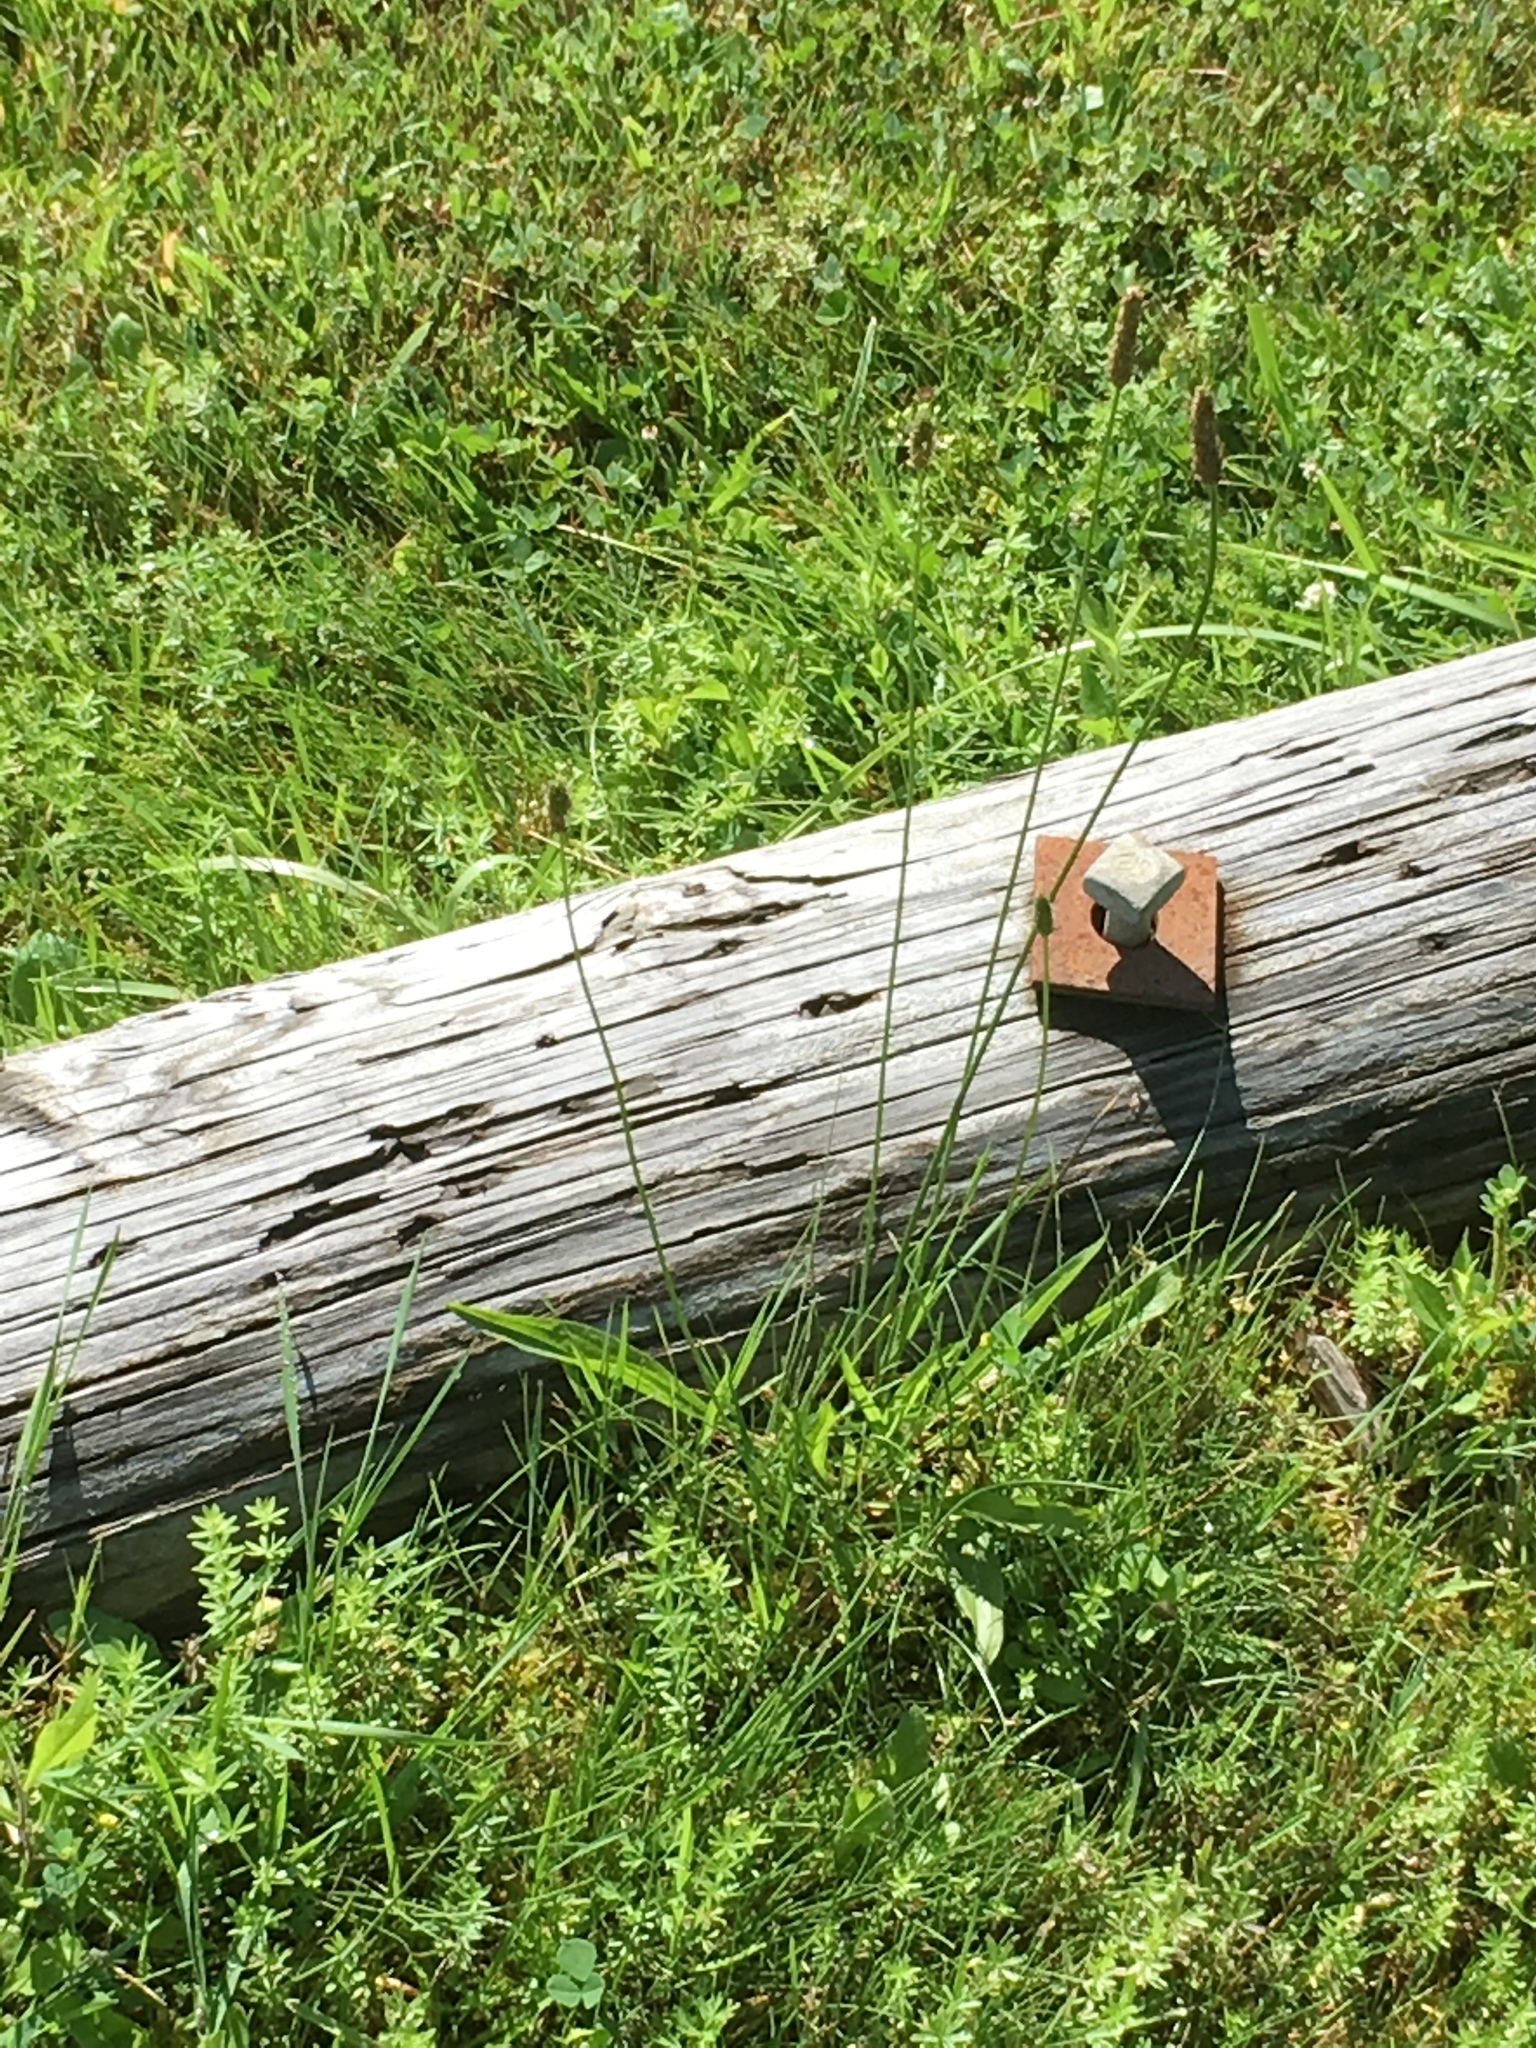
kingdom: Plantae
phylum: Tracheophyta
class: Magnoliopsida
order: Lamiales
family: Plantaginaceae
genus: Plantago
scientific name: Plantago lanceolata
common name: Ribwort plantain
